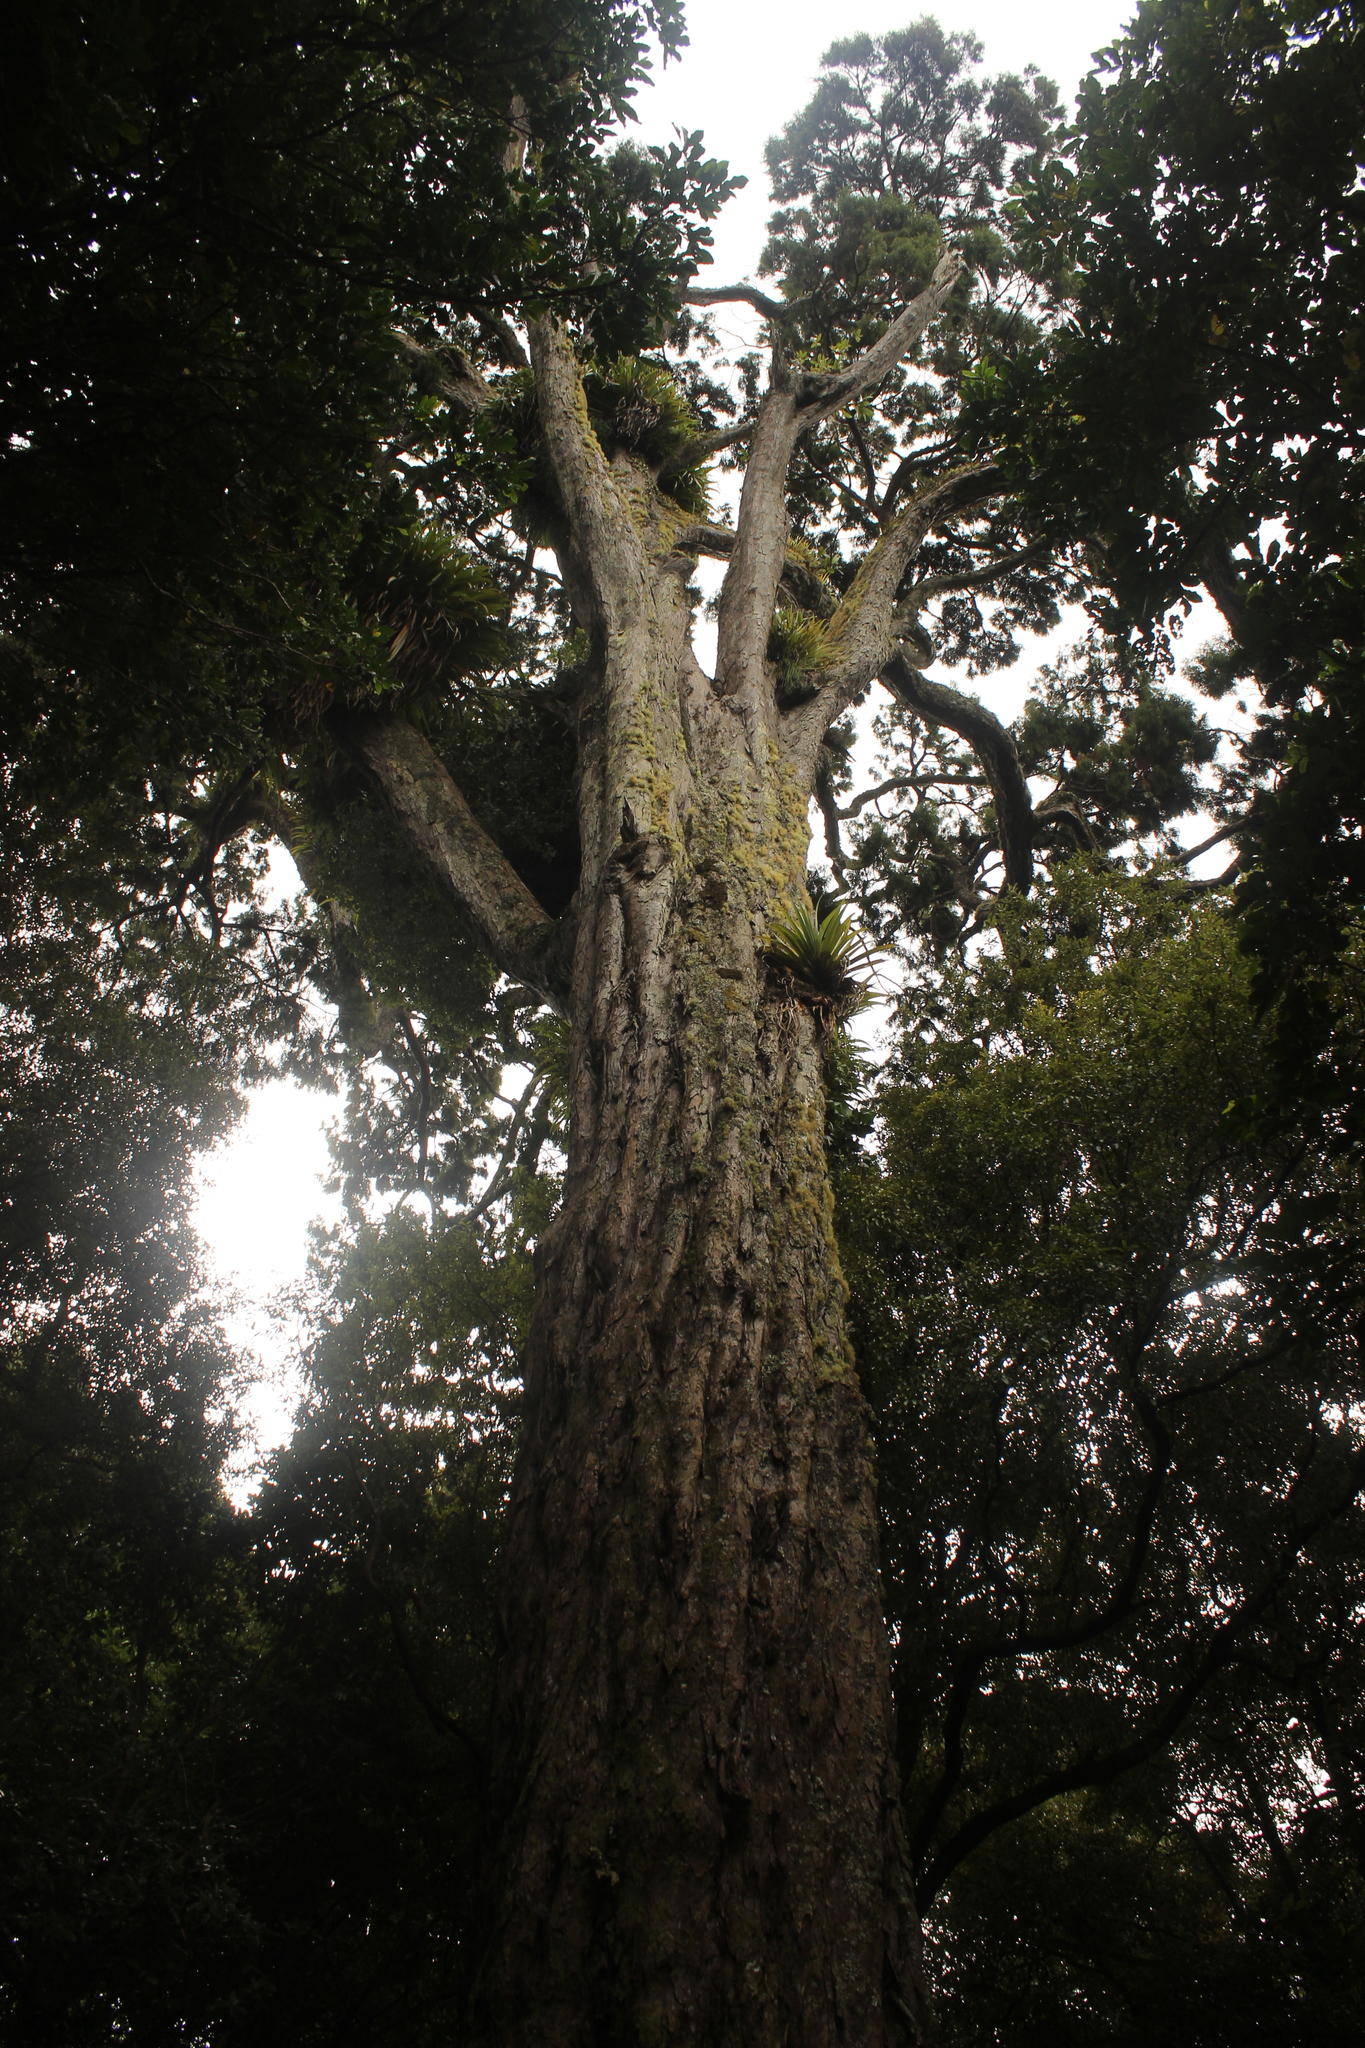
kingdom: Plantae
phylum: Tracheophyta
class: Pinopsida
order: Pinales
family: Podocarpaceae
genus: Dacrydium
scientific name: Dacrydium cupressinum
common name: Red pine
